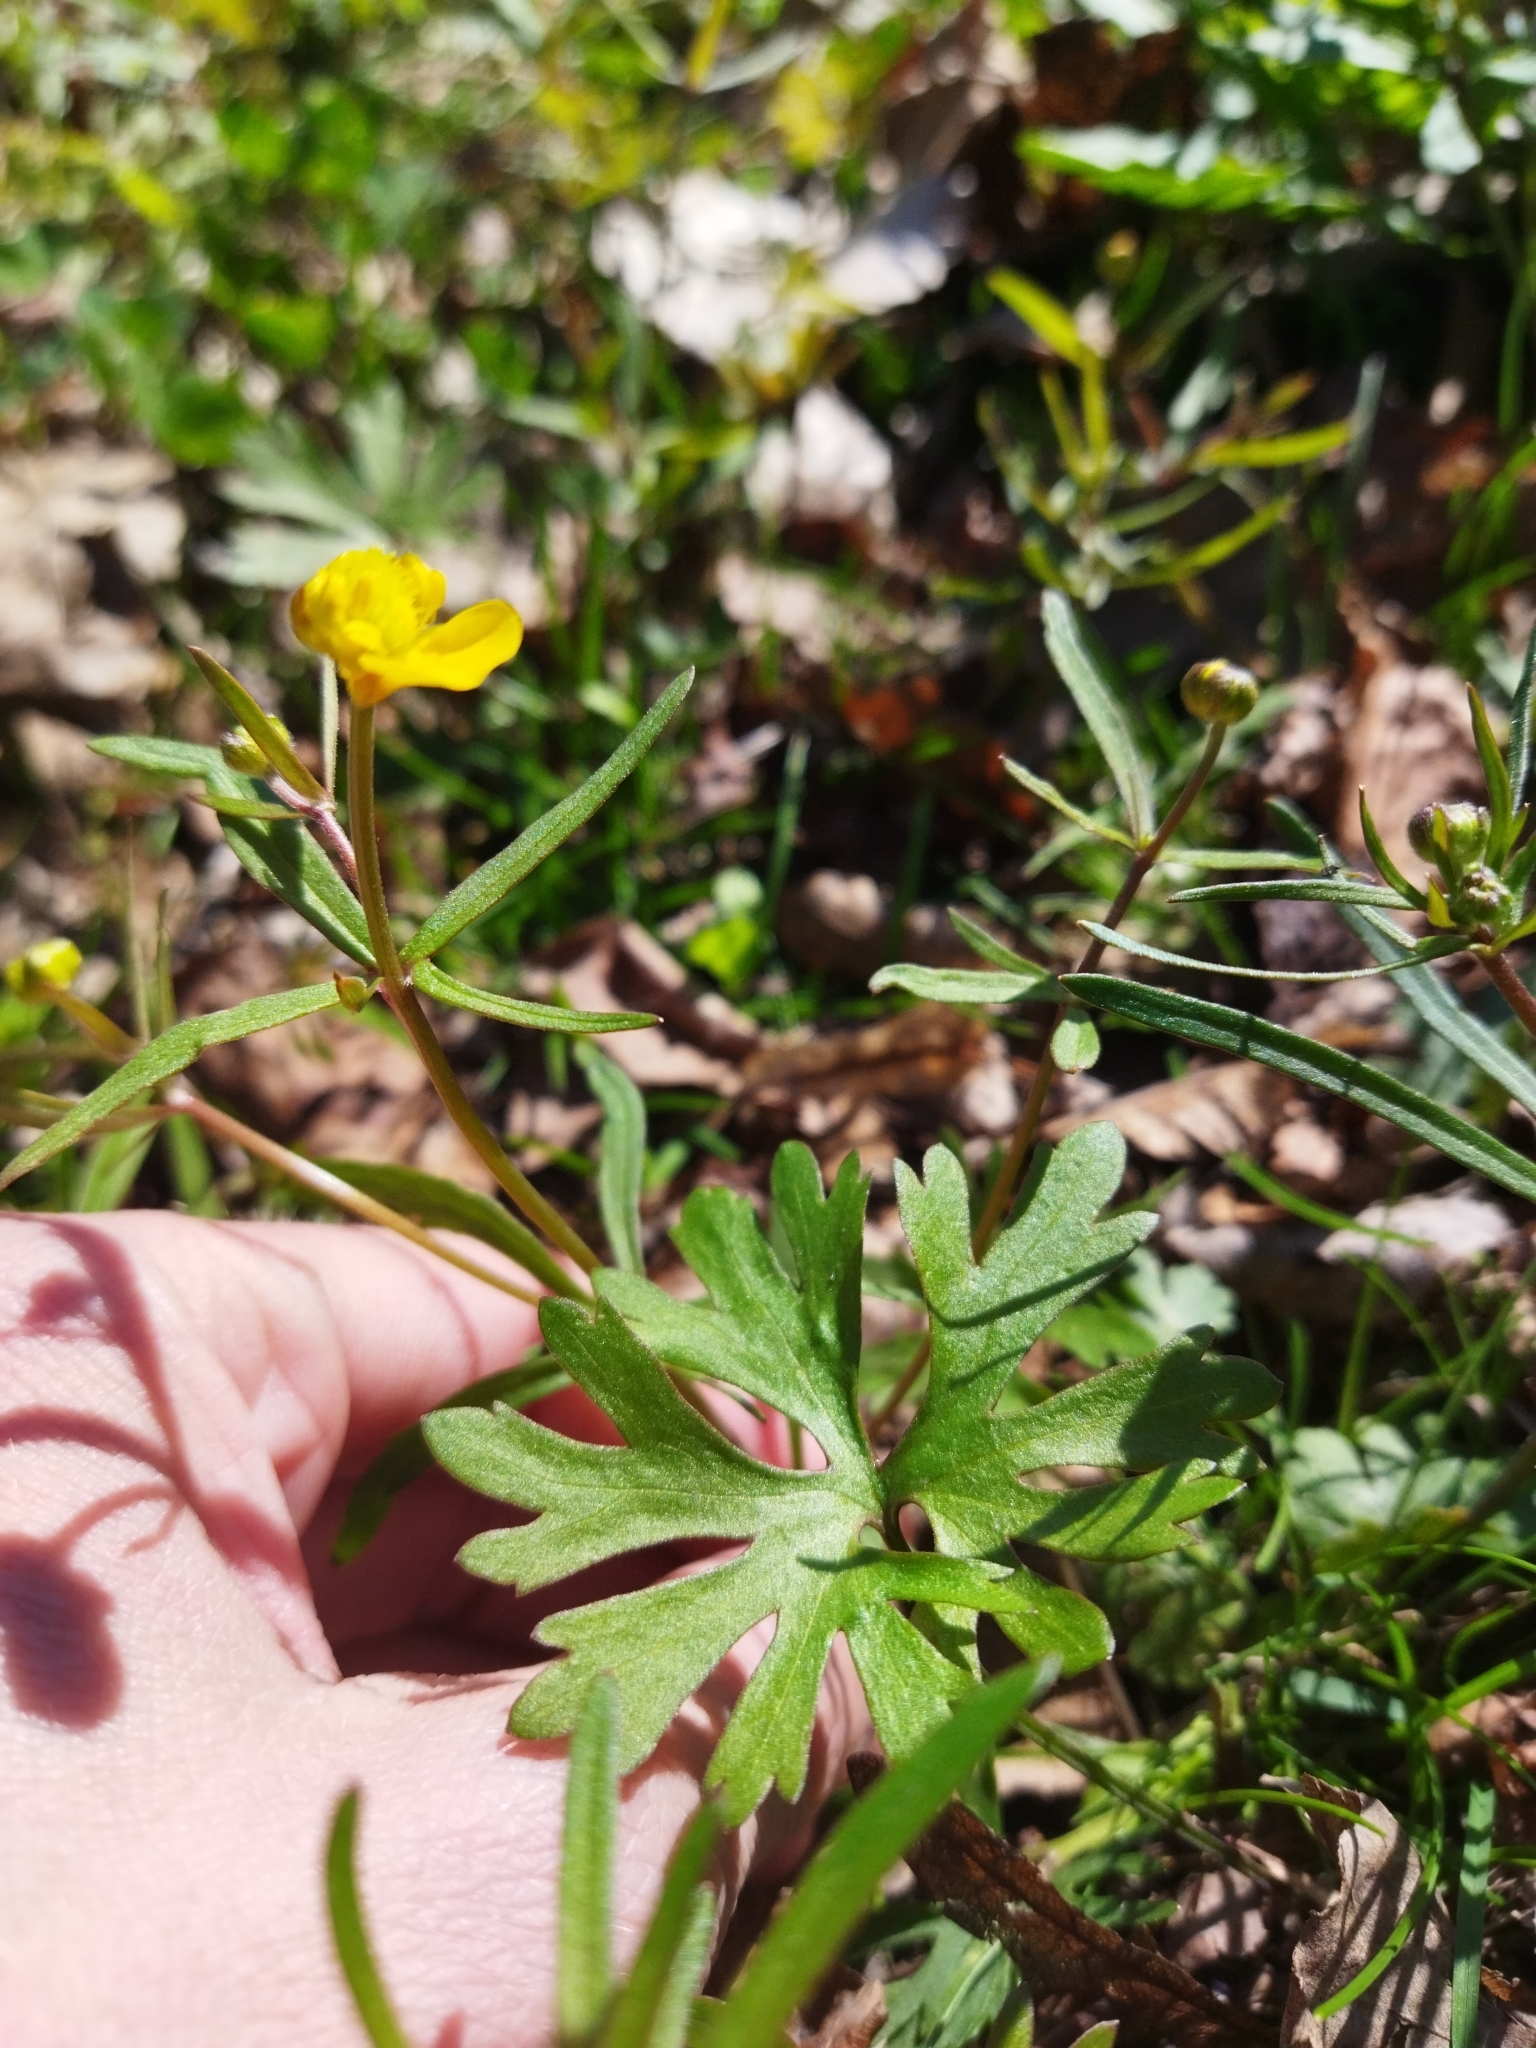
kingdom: Plantae
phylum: Tracheophyta
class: Magnoliopsida
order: Ranunculales
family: Ranunculaceae
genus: Ranunculus
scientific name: Ranunculus auricomus
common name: Goldilocks buttercup
